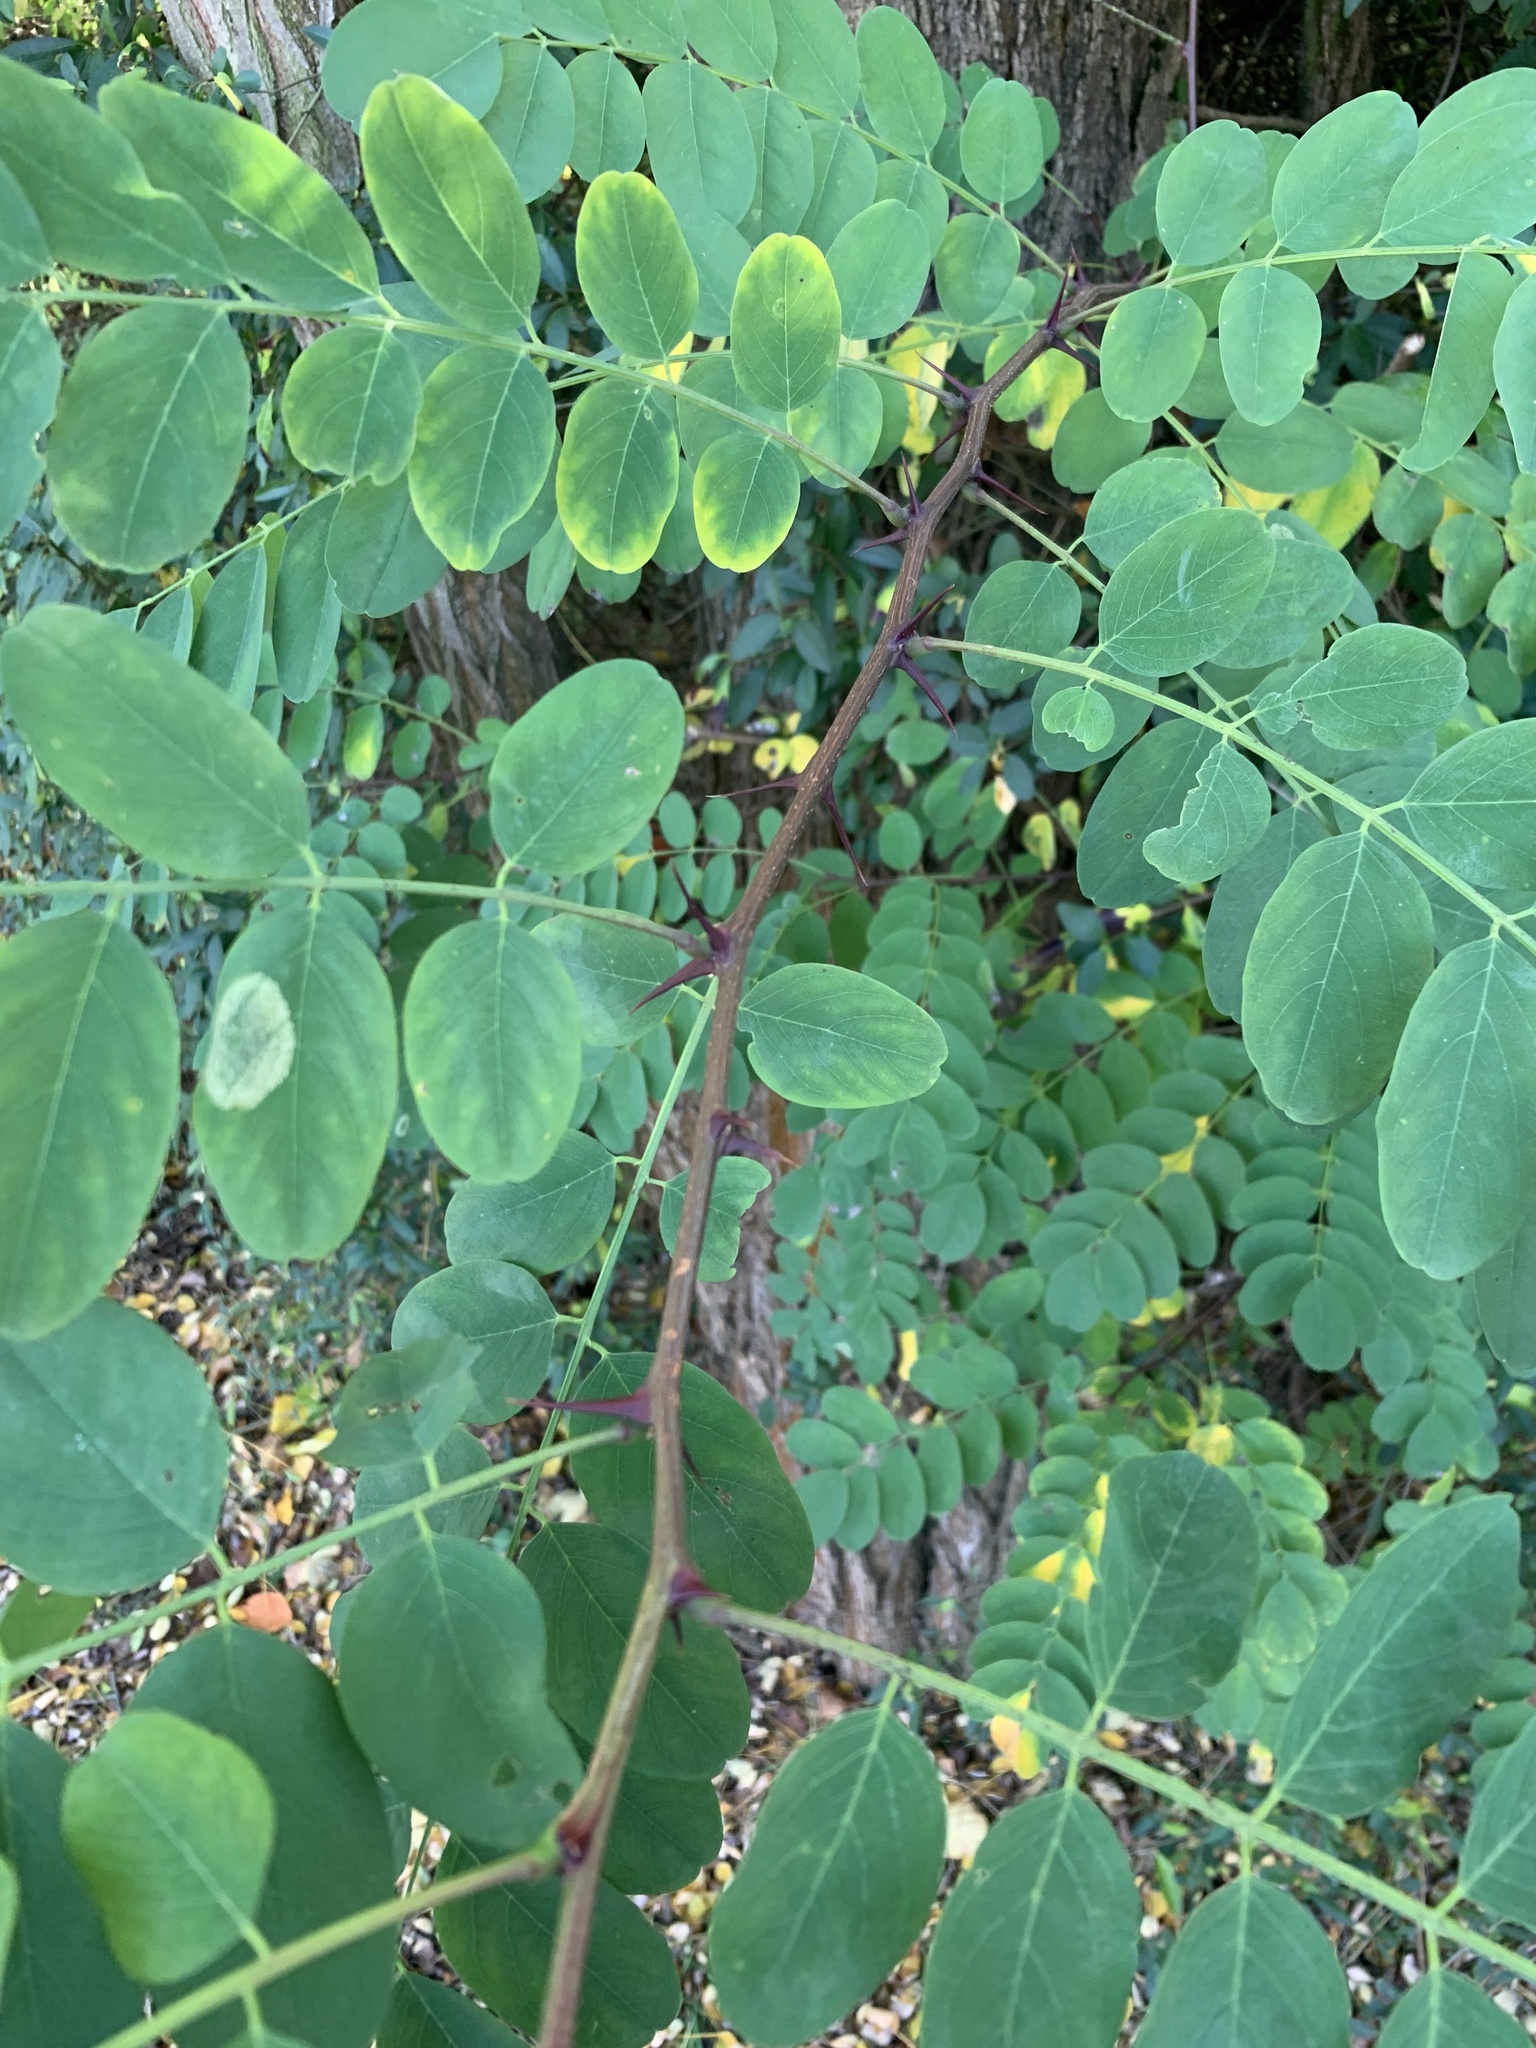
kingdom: Plantae
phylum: Tracheophyta
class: Magnoliopsida
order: Fabales
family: Fabaceae
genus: Robinia
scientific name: Robinia pseudoacacia
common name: Black locust
